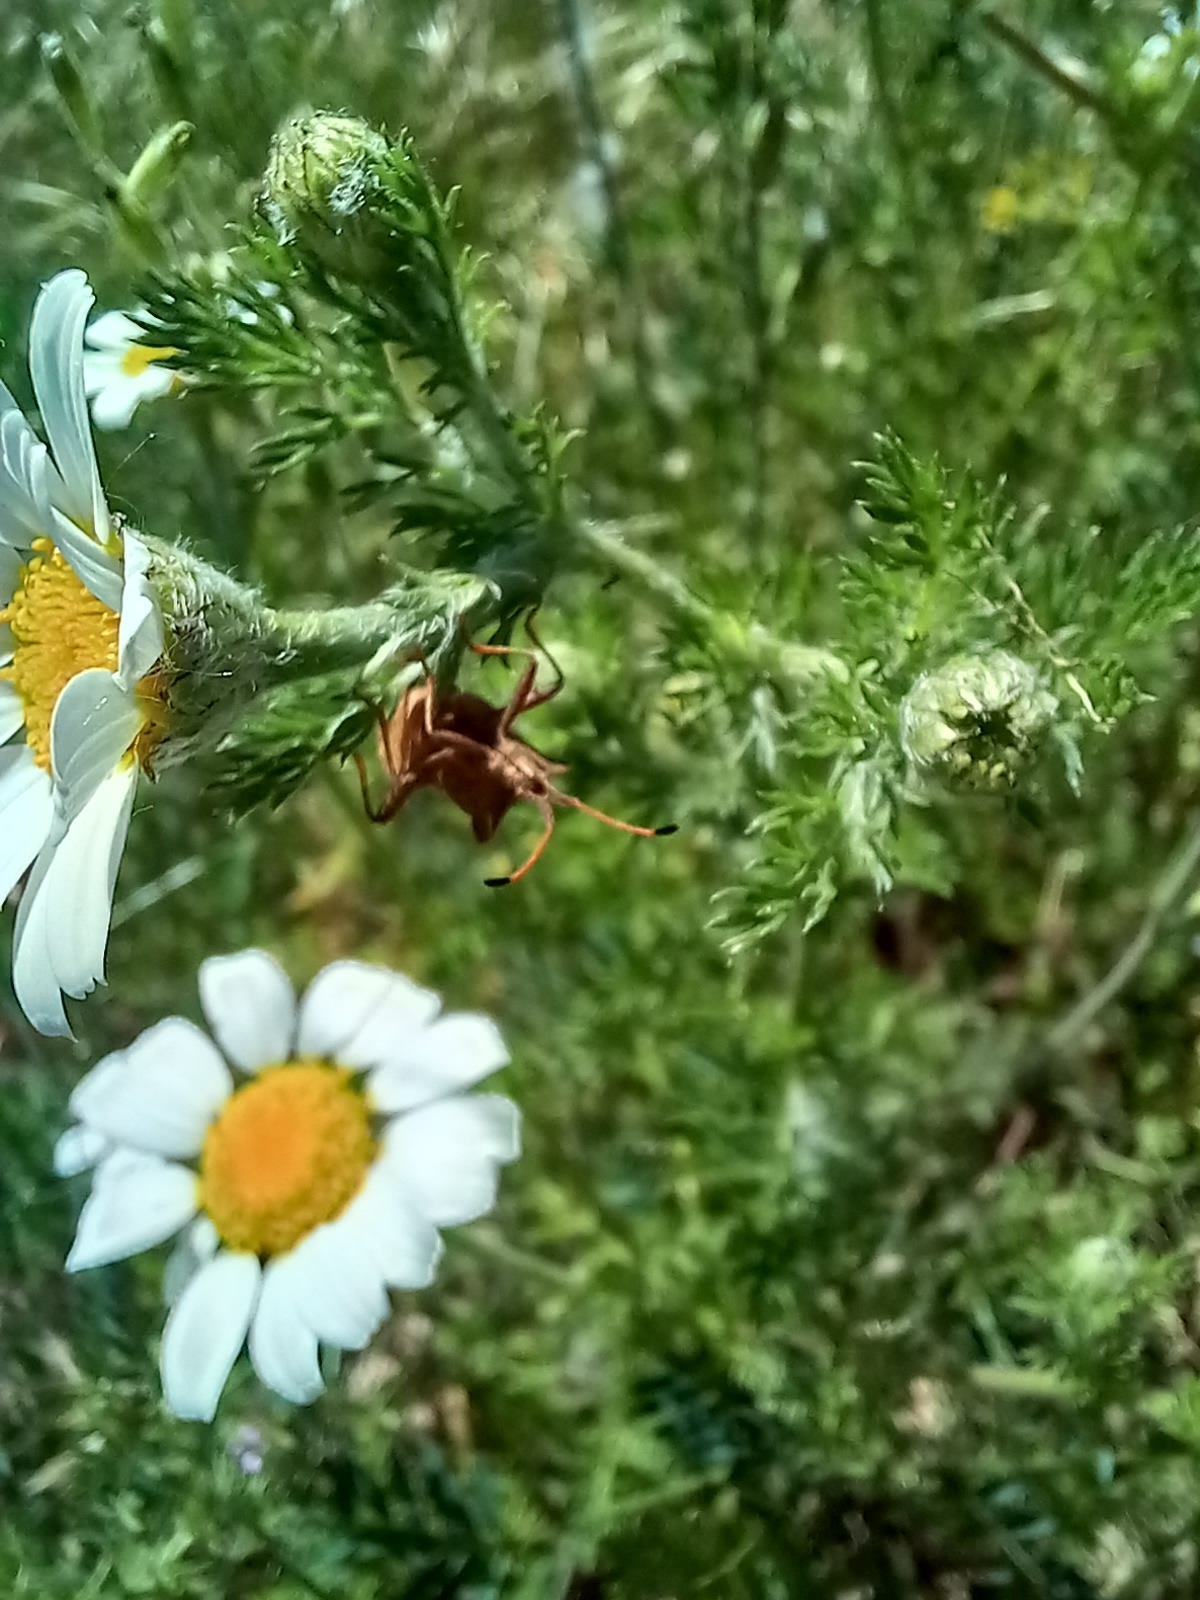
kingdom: Animalia
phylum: Arthropoda
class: Insecta
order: Hemiptera
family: Coreidae
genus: Coreus
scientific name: Coreus marginatus
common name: Dock bug
